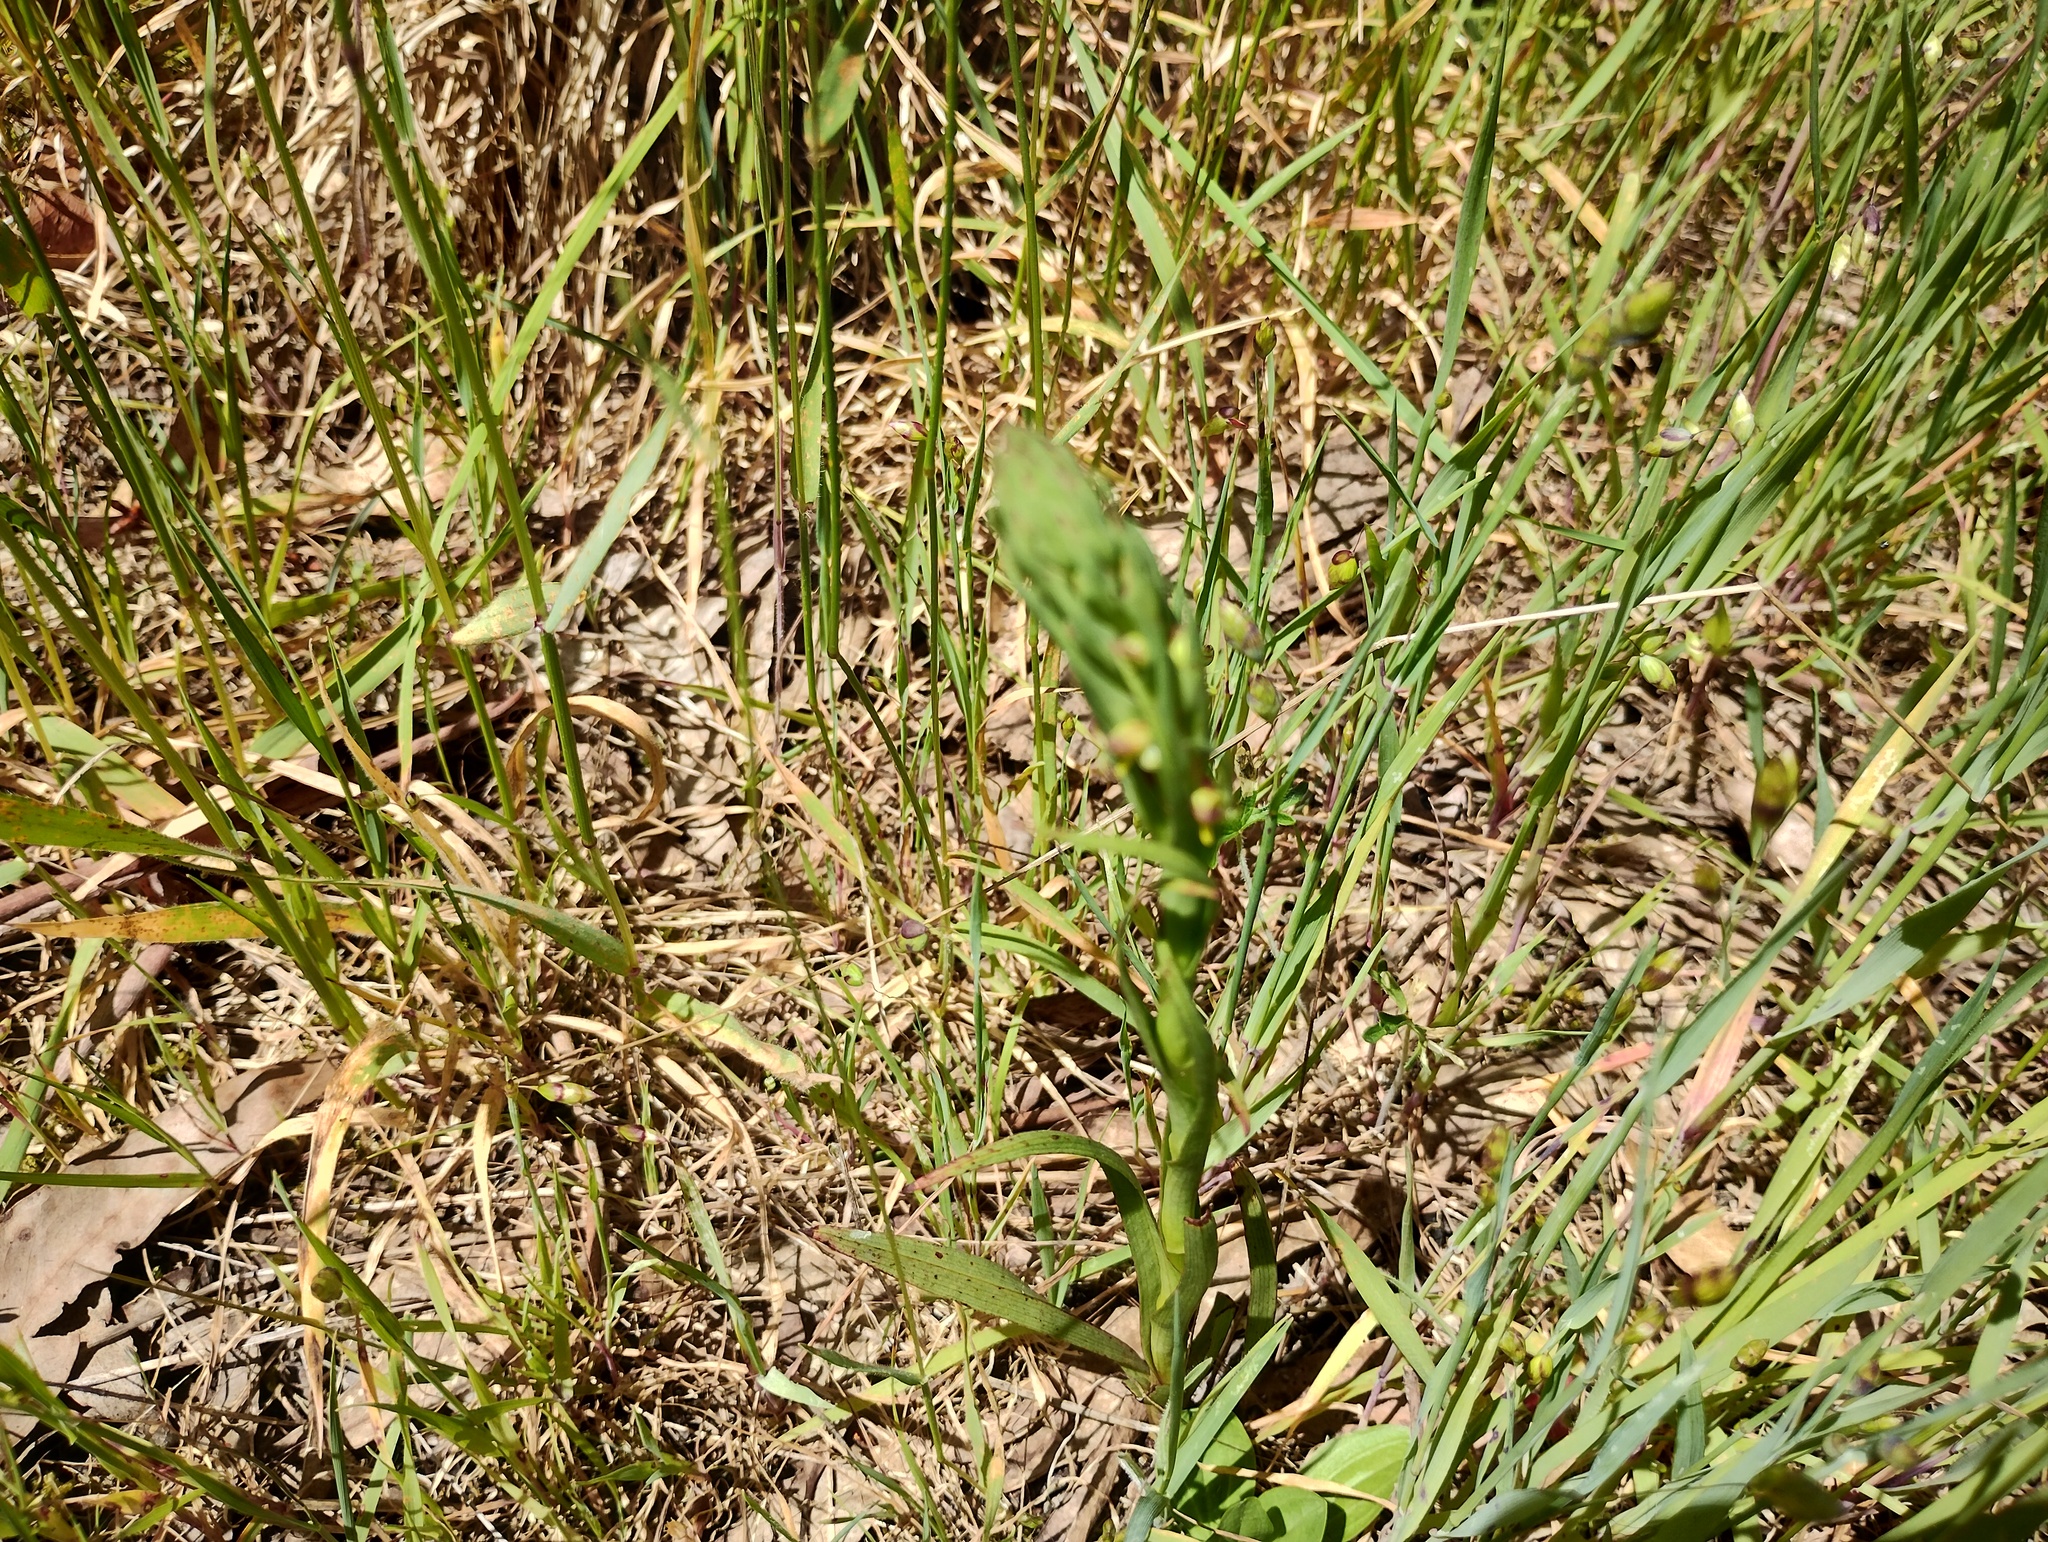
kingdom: Plantae
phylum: Tracheophyta
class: Liliopsida
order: Asparagales
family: Orchidaceae
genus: Disa
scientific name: Disa bracteata
